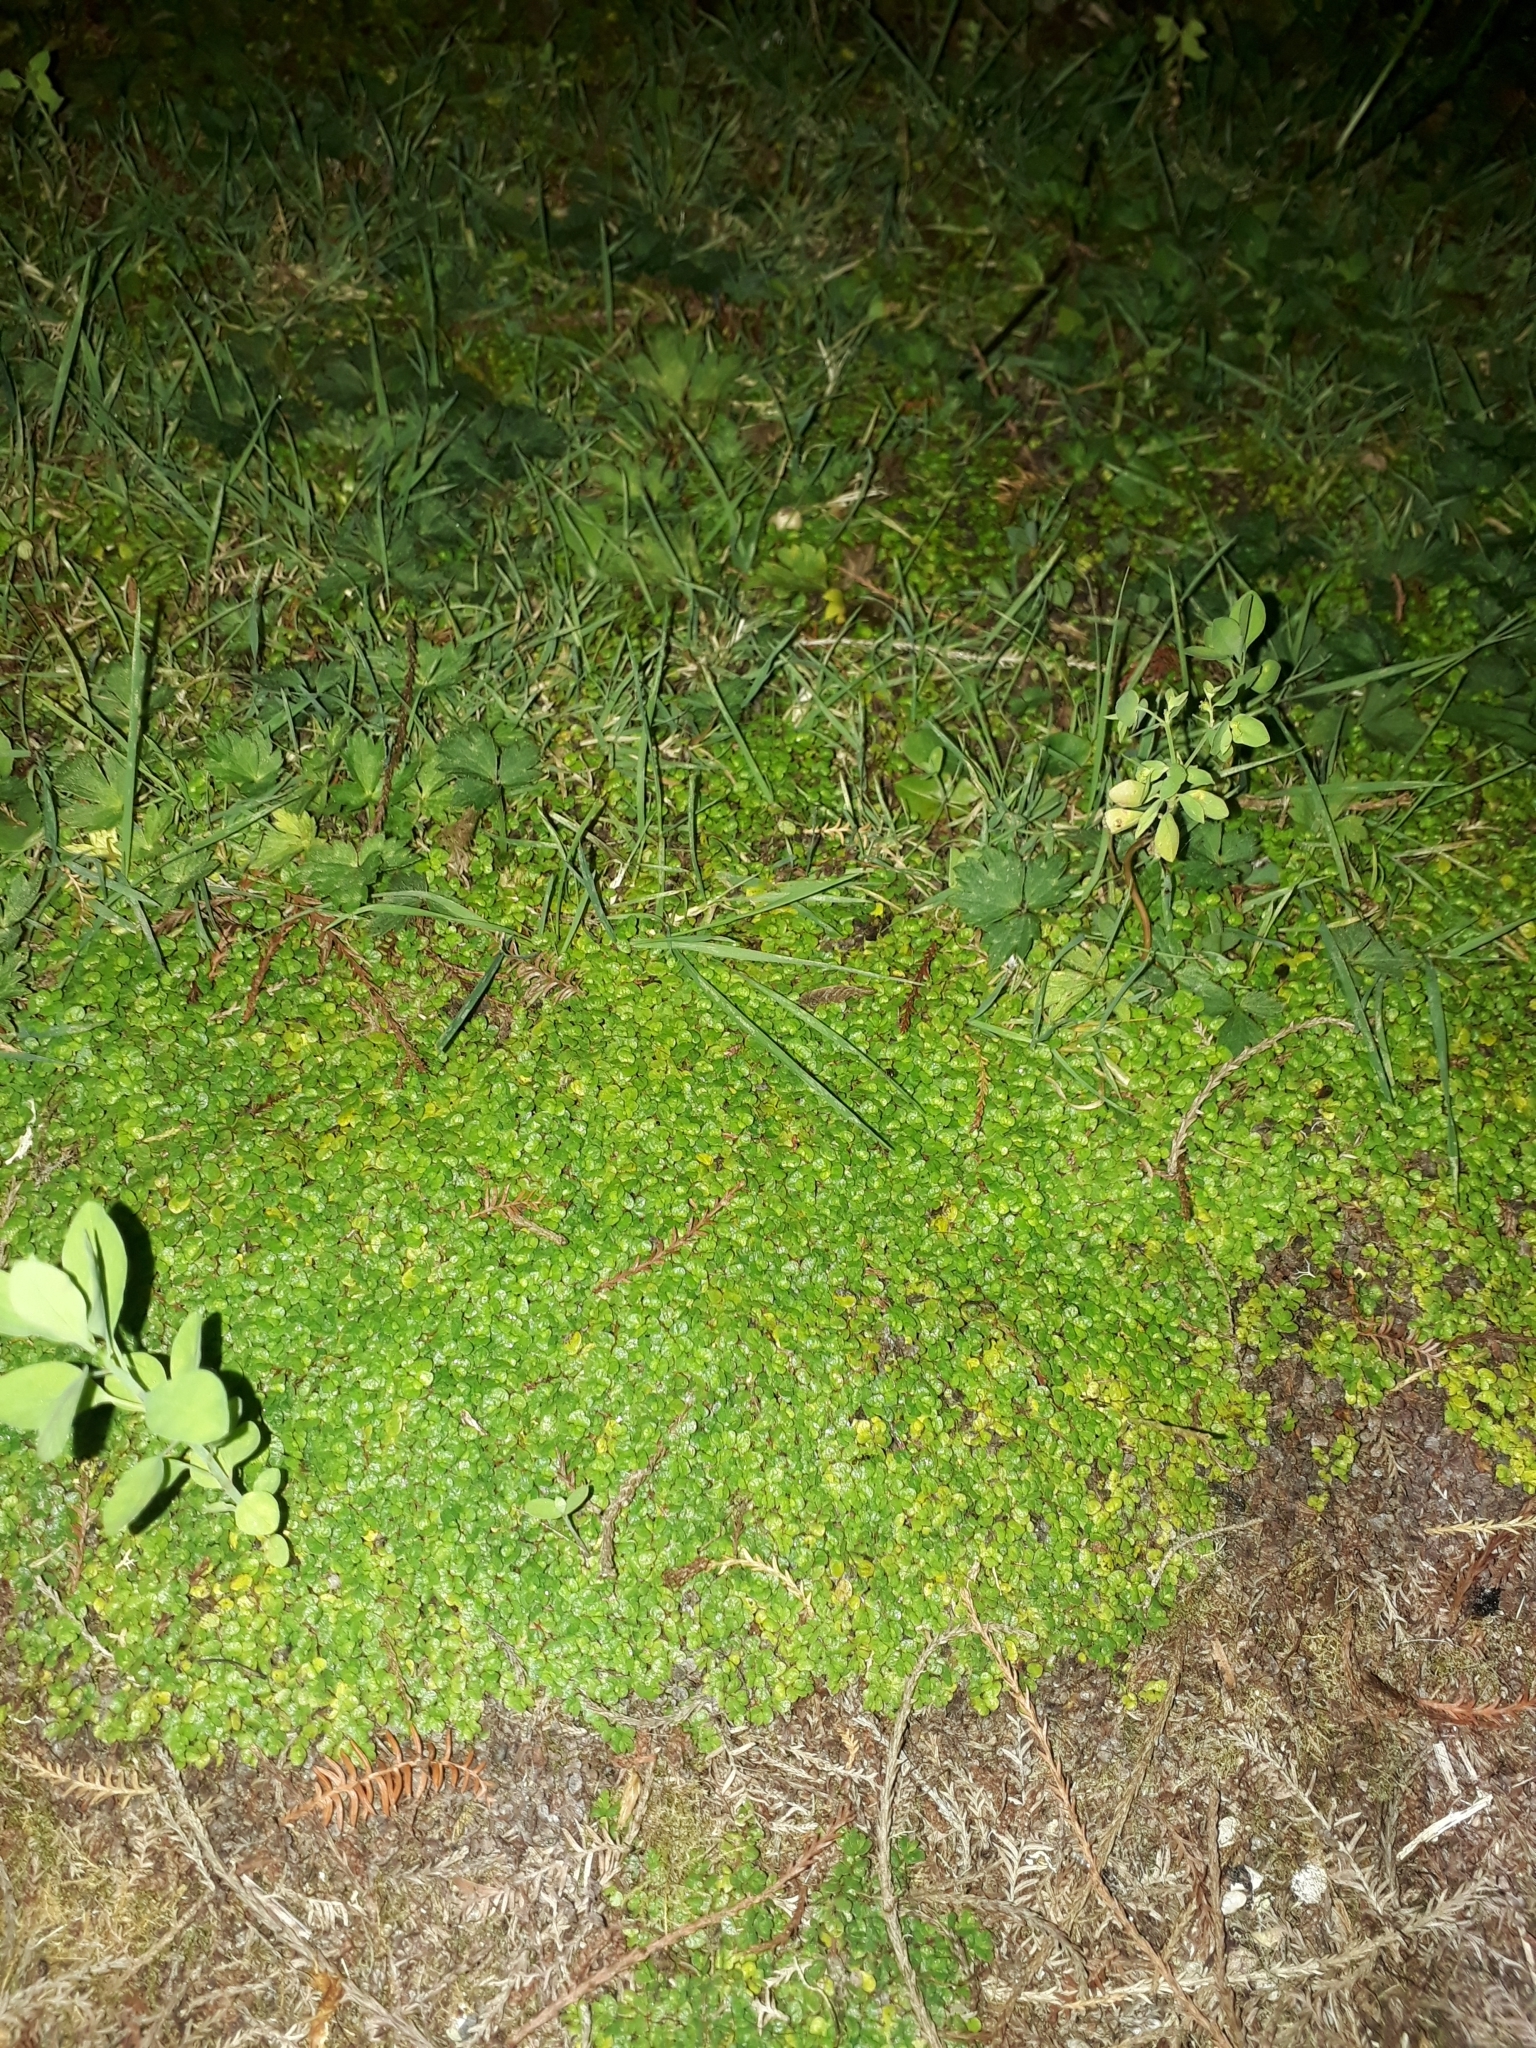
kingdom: Plantae
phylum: Tracheophyta
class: Magnoliopsida
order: Rosales
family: Urticaceae
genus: Soleirolia
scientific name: Soleirolia soleirolii
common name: Mind-your-own-business
